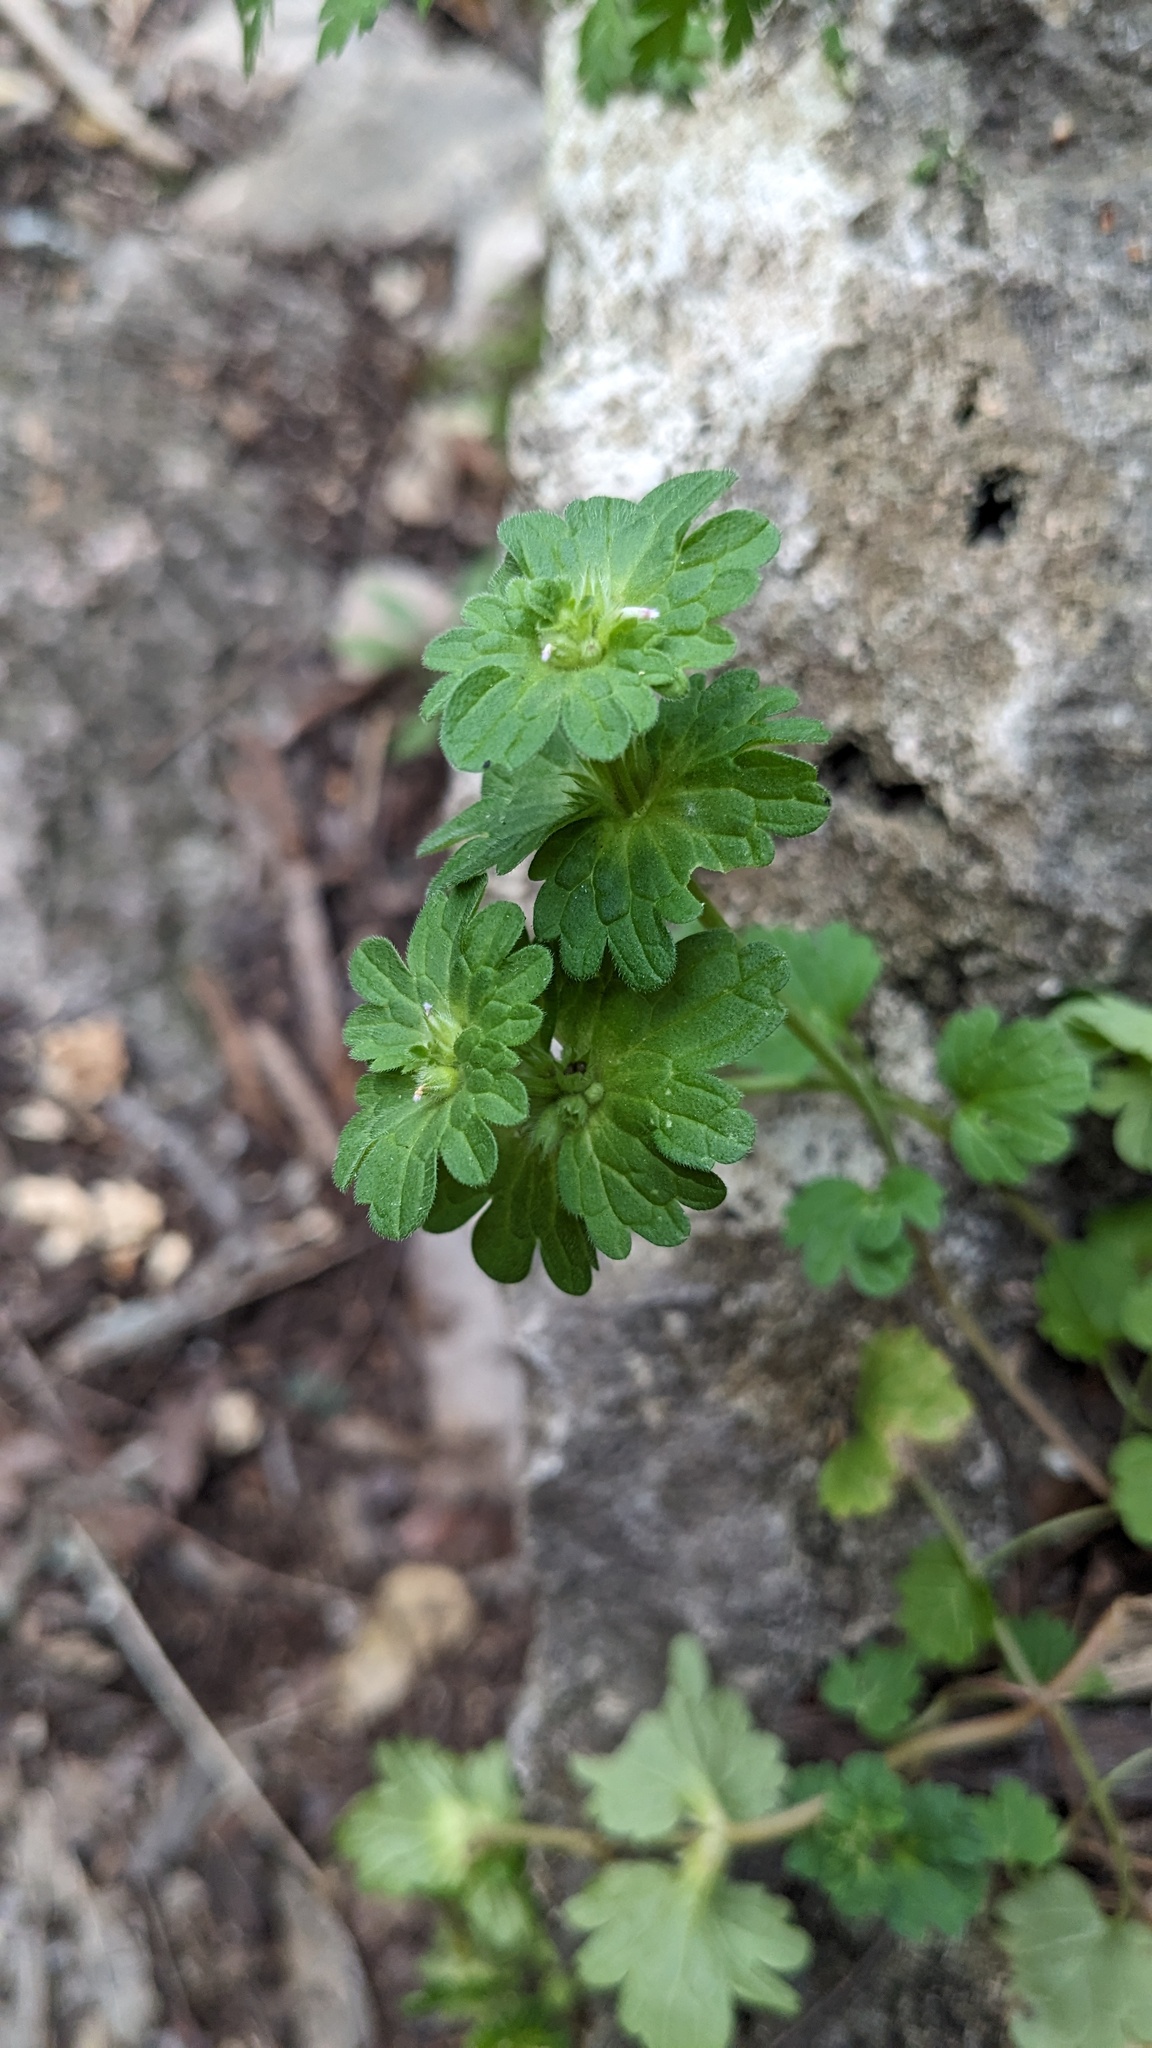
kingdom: Plantae
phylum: Tracheophyta
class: Magnoliopsida
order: Lamiales
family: Lamiaceae
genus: Lamium
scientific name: Lamium amplexicaule
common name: Henbit dead-nettle
